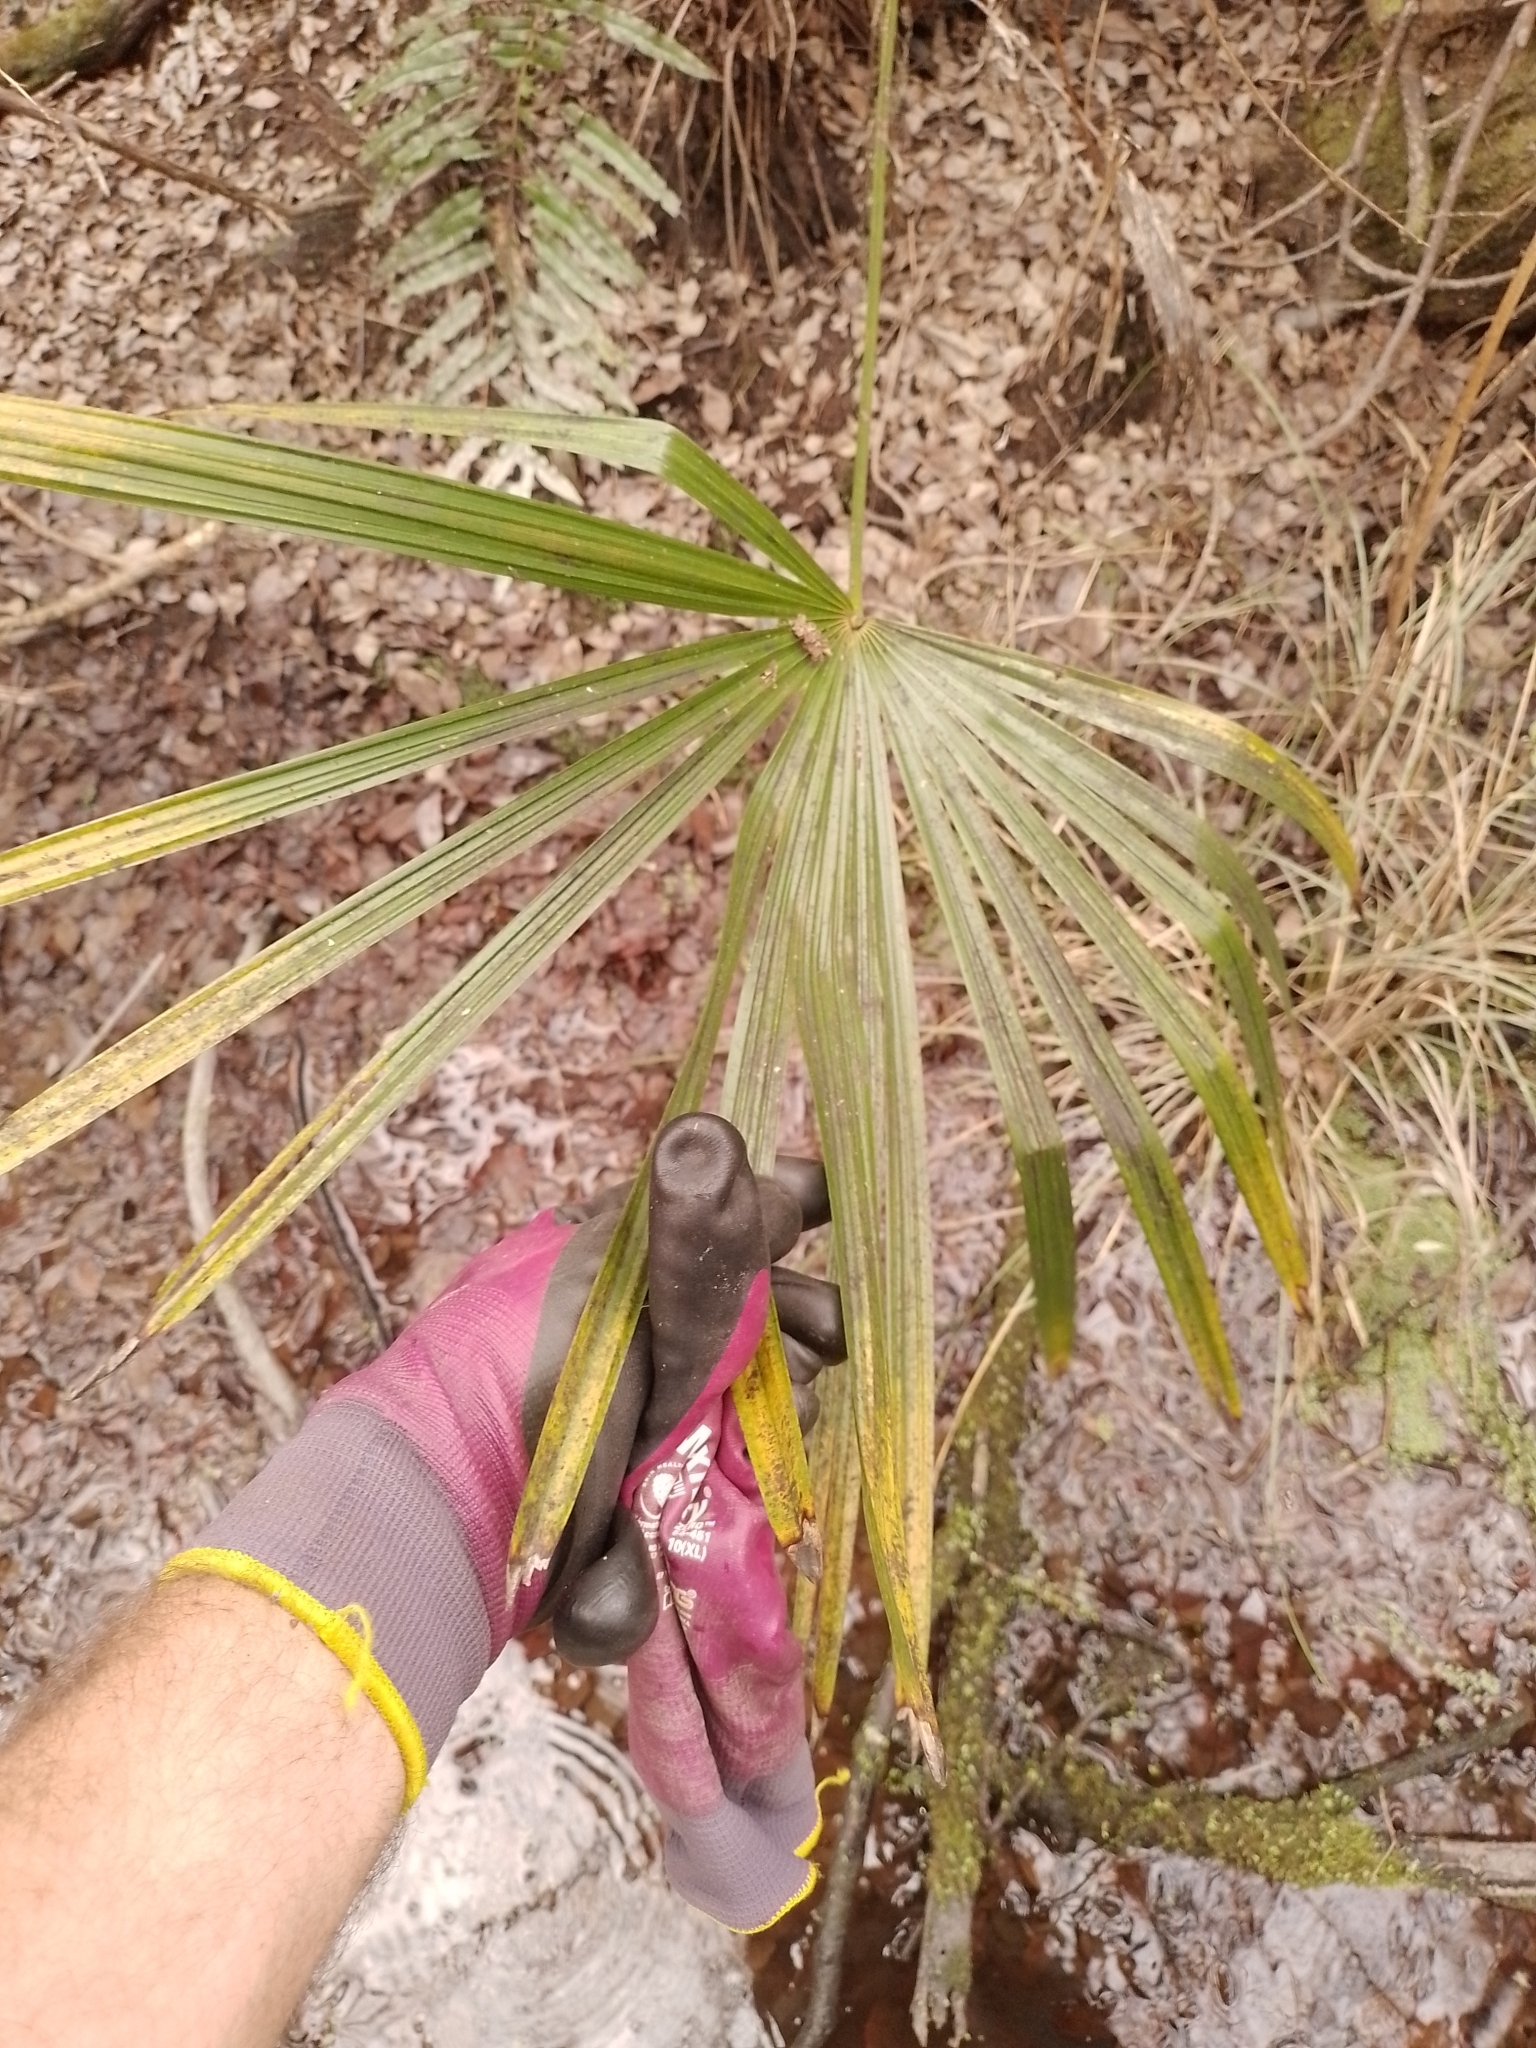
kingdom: Plantae
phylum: Tracheophyta
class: Liliopsida
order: Arecales
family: Arecaceae
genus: Trachycarpus
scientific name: Trachycarpus fortunei
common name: Chusan palm
